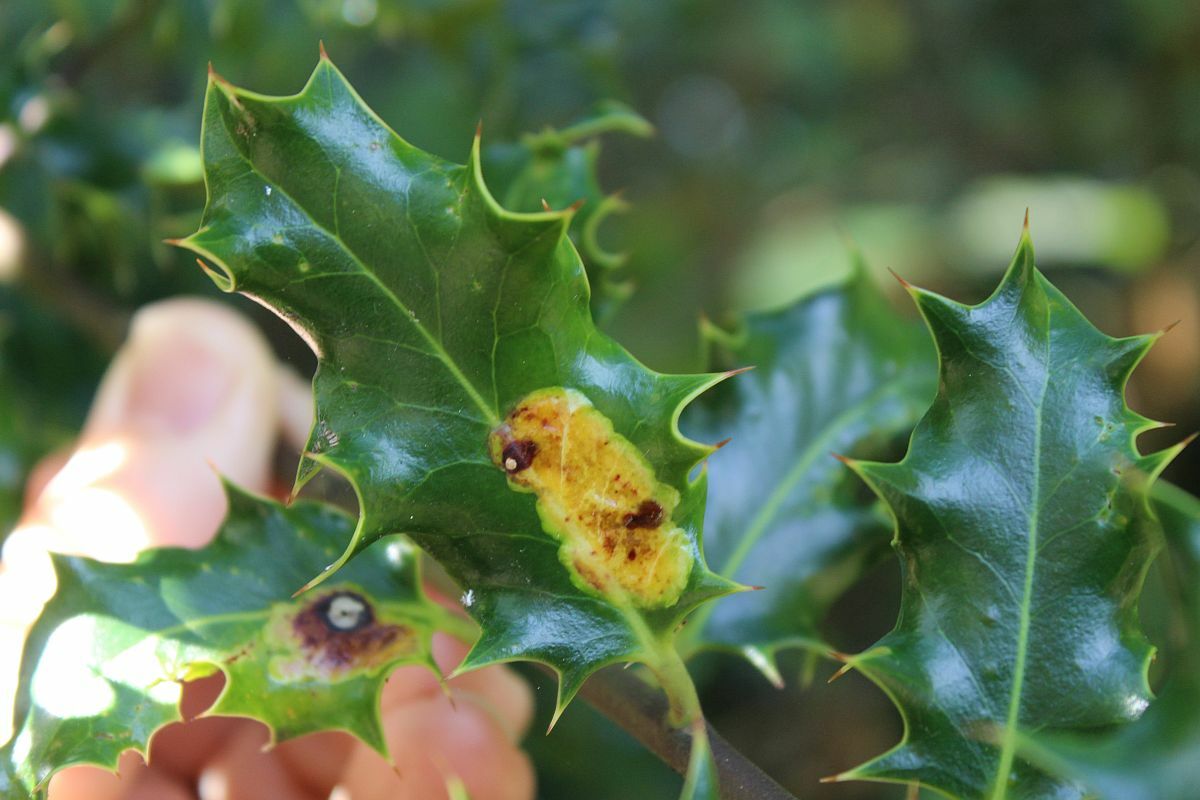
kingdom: Animalia
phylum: Arthropoda
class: Insecta
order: Diptera
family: Agromyzidae
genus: Phytomyza
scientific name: Phytomyza ilicis
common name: Holly leafminer
